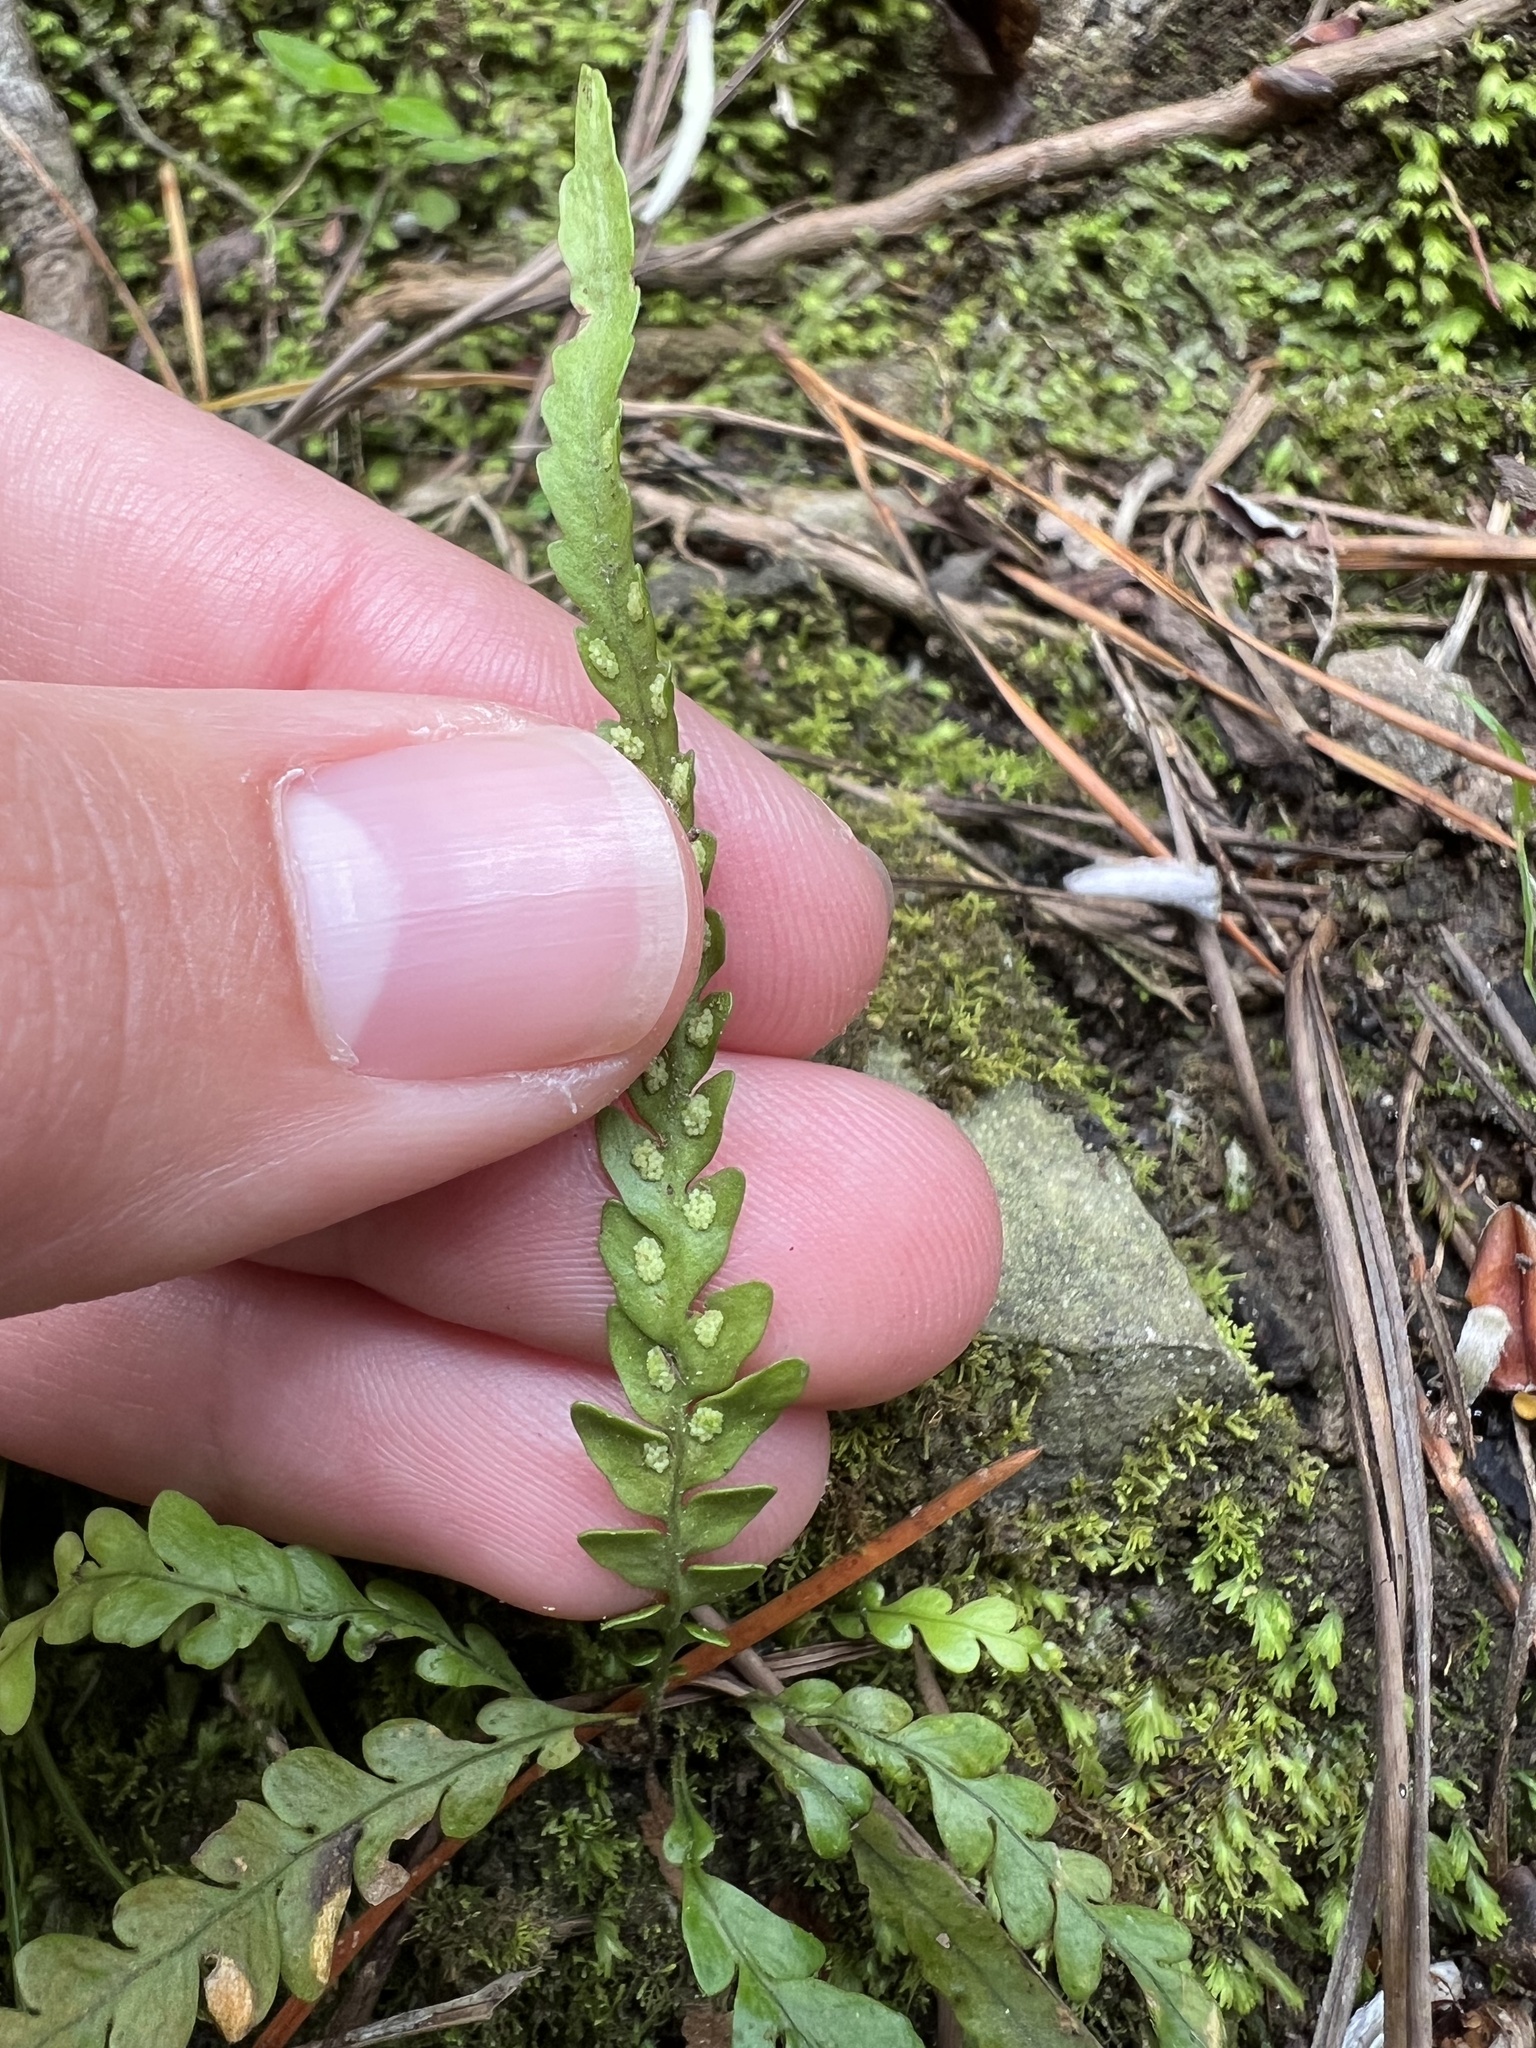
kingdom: Plantae
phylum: Tracheophyta
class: Polypodiopsida
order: Polypodiales
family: Polypodiaceae
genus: Notogrammitis
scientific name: Notogrammitis heterophylla
